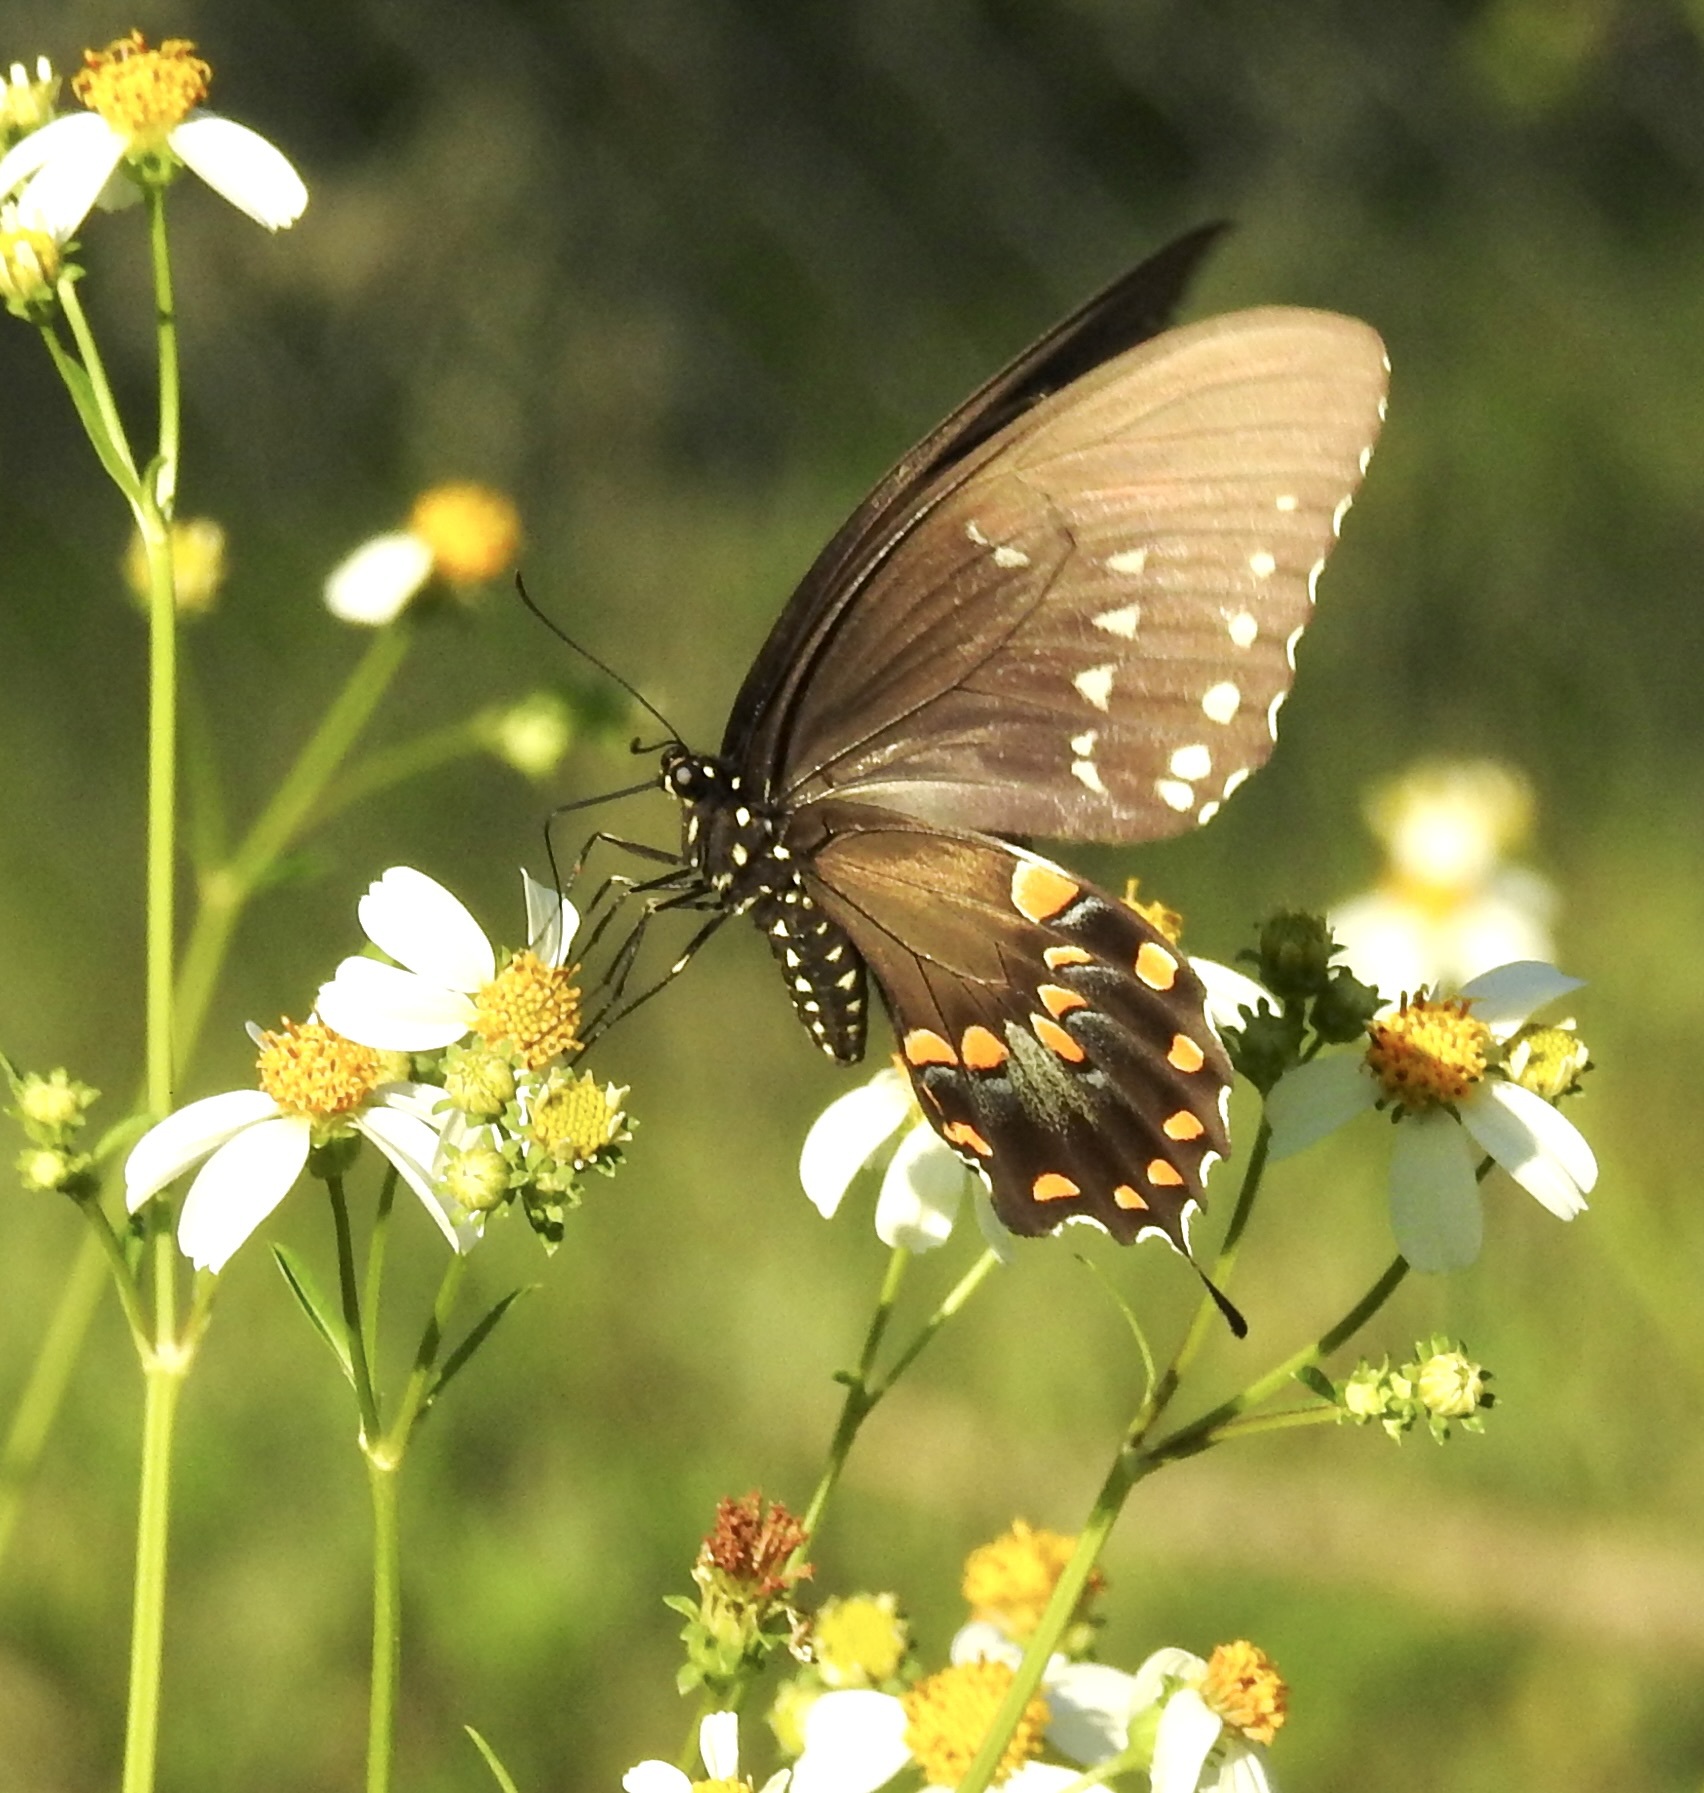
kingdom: Animalia
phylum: Arthropoda
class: Insecta
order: Lepidoptera
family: Papilionidae
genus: Papilio
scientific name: Papilio troilus
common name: Spicebush swallowtail
